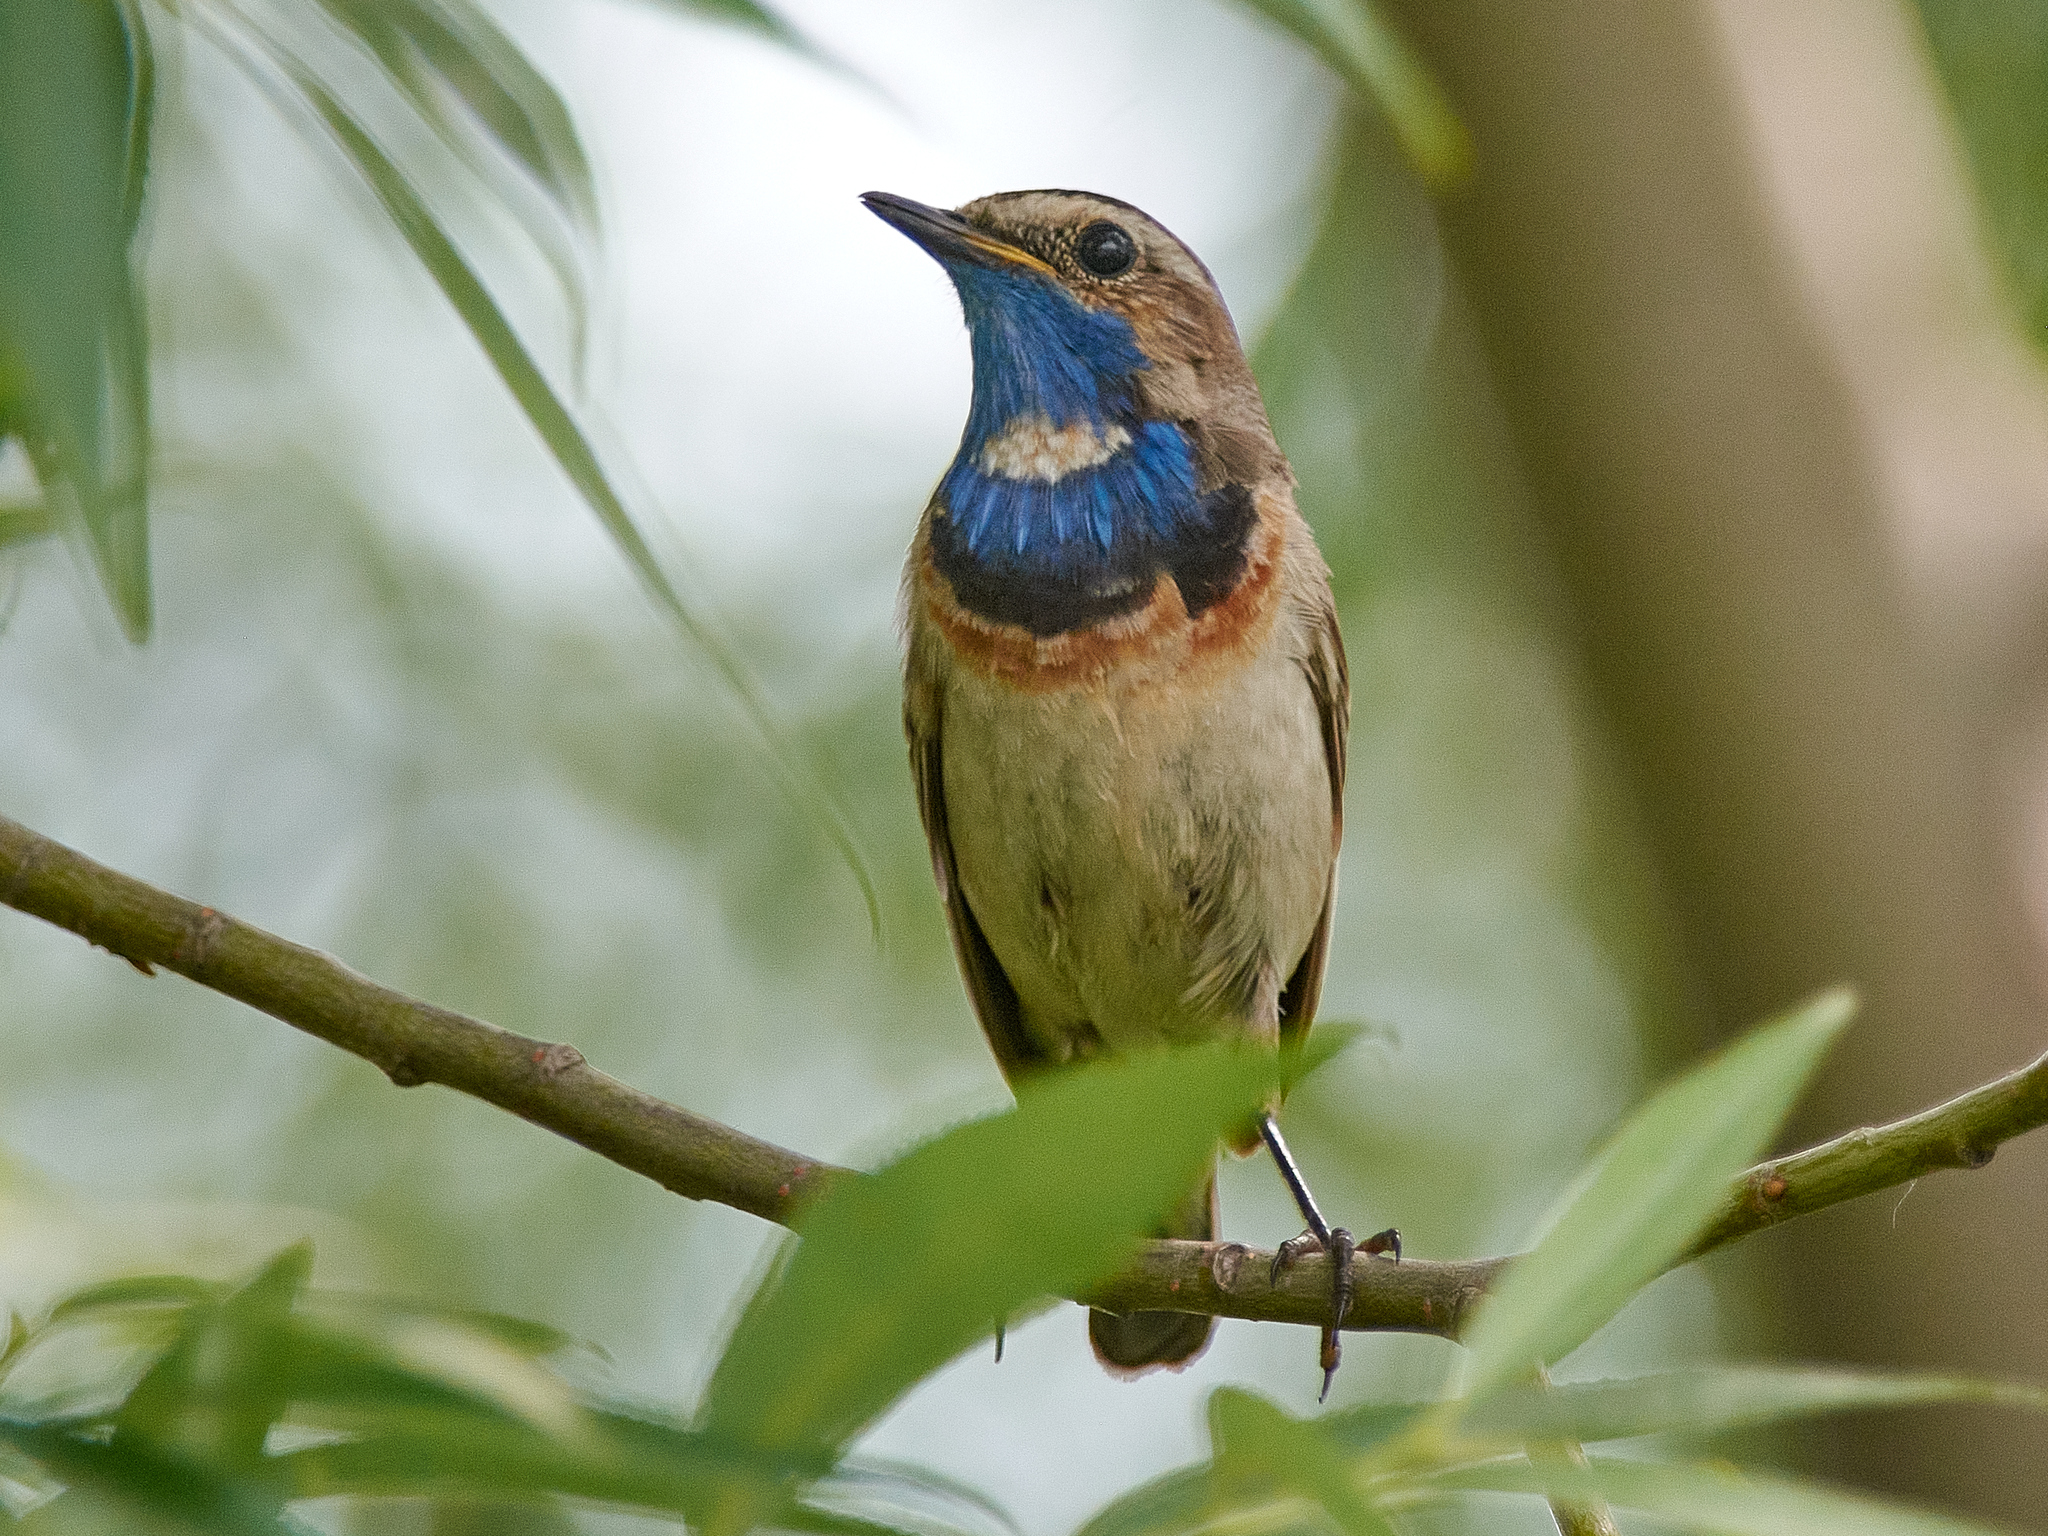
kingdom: Animalia
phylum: Chordata
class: Aves
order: Passeriformes
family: Muscicapidae
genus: Luscinia
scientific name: Luscinia svecica
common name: Bluethroat
